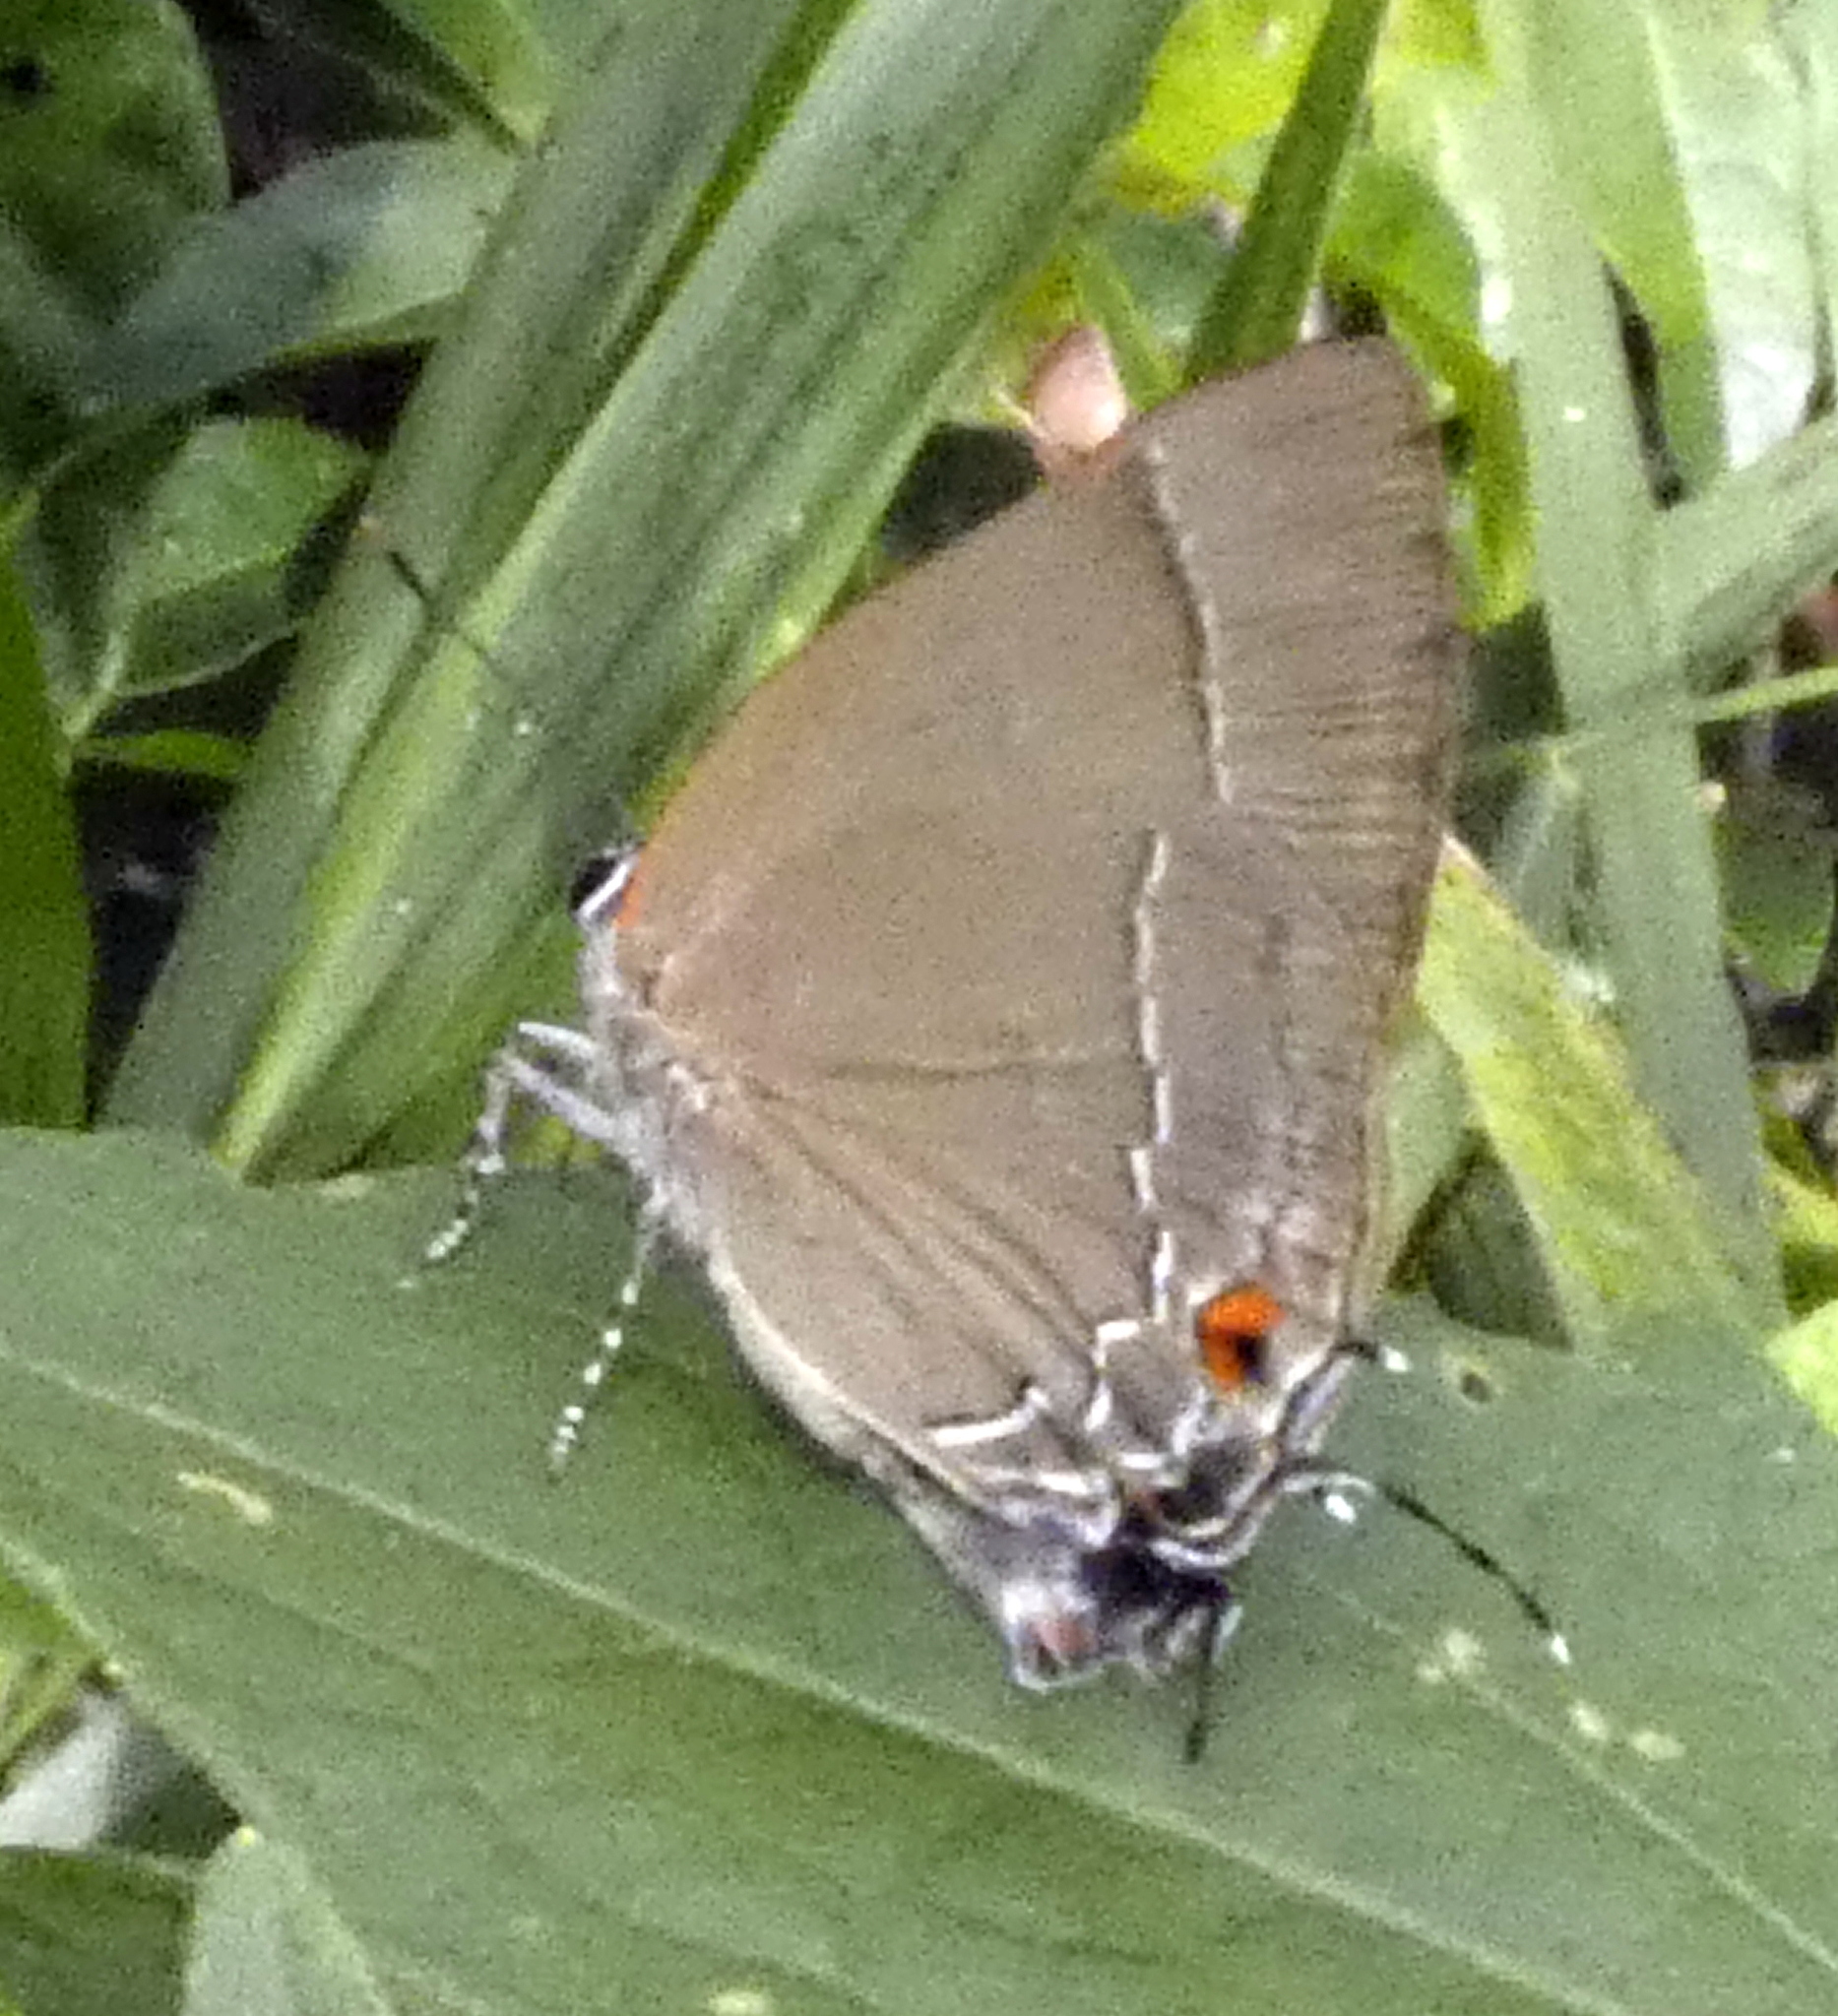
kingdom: Animalia
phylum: Arthropoda
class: Insecta
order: Lepidoptera
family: Lycaenidae
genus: Thecla
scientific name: Thecla spurina
